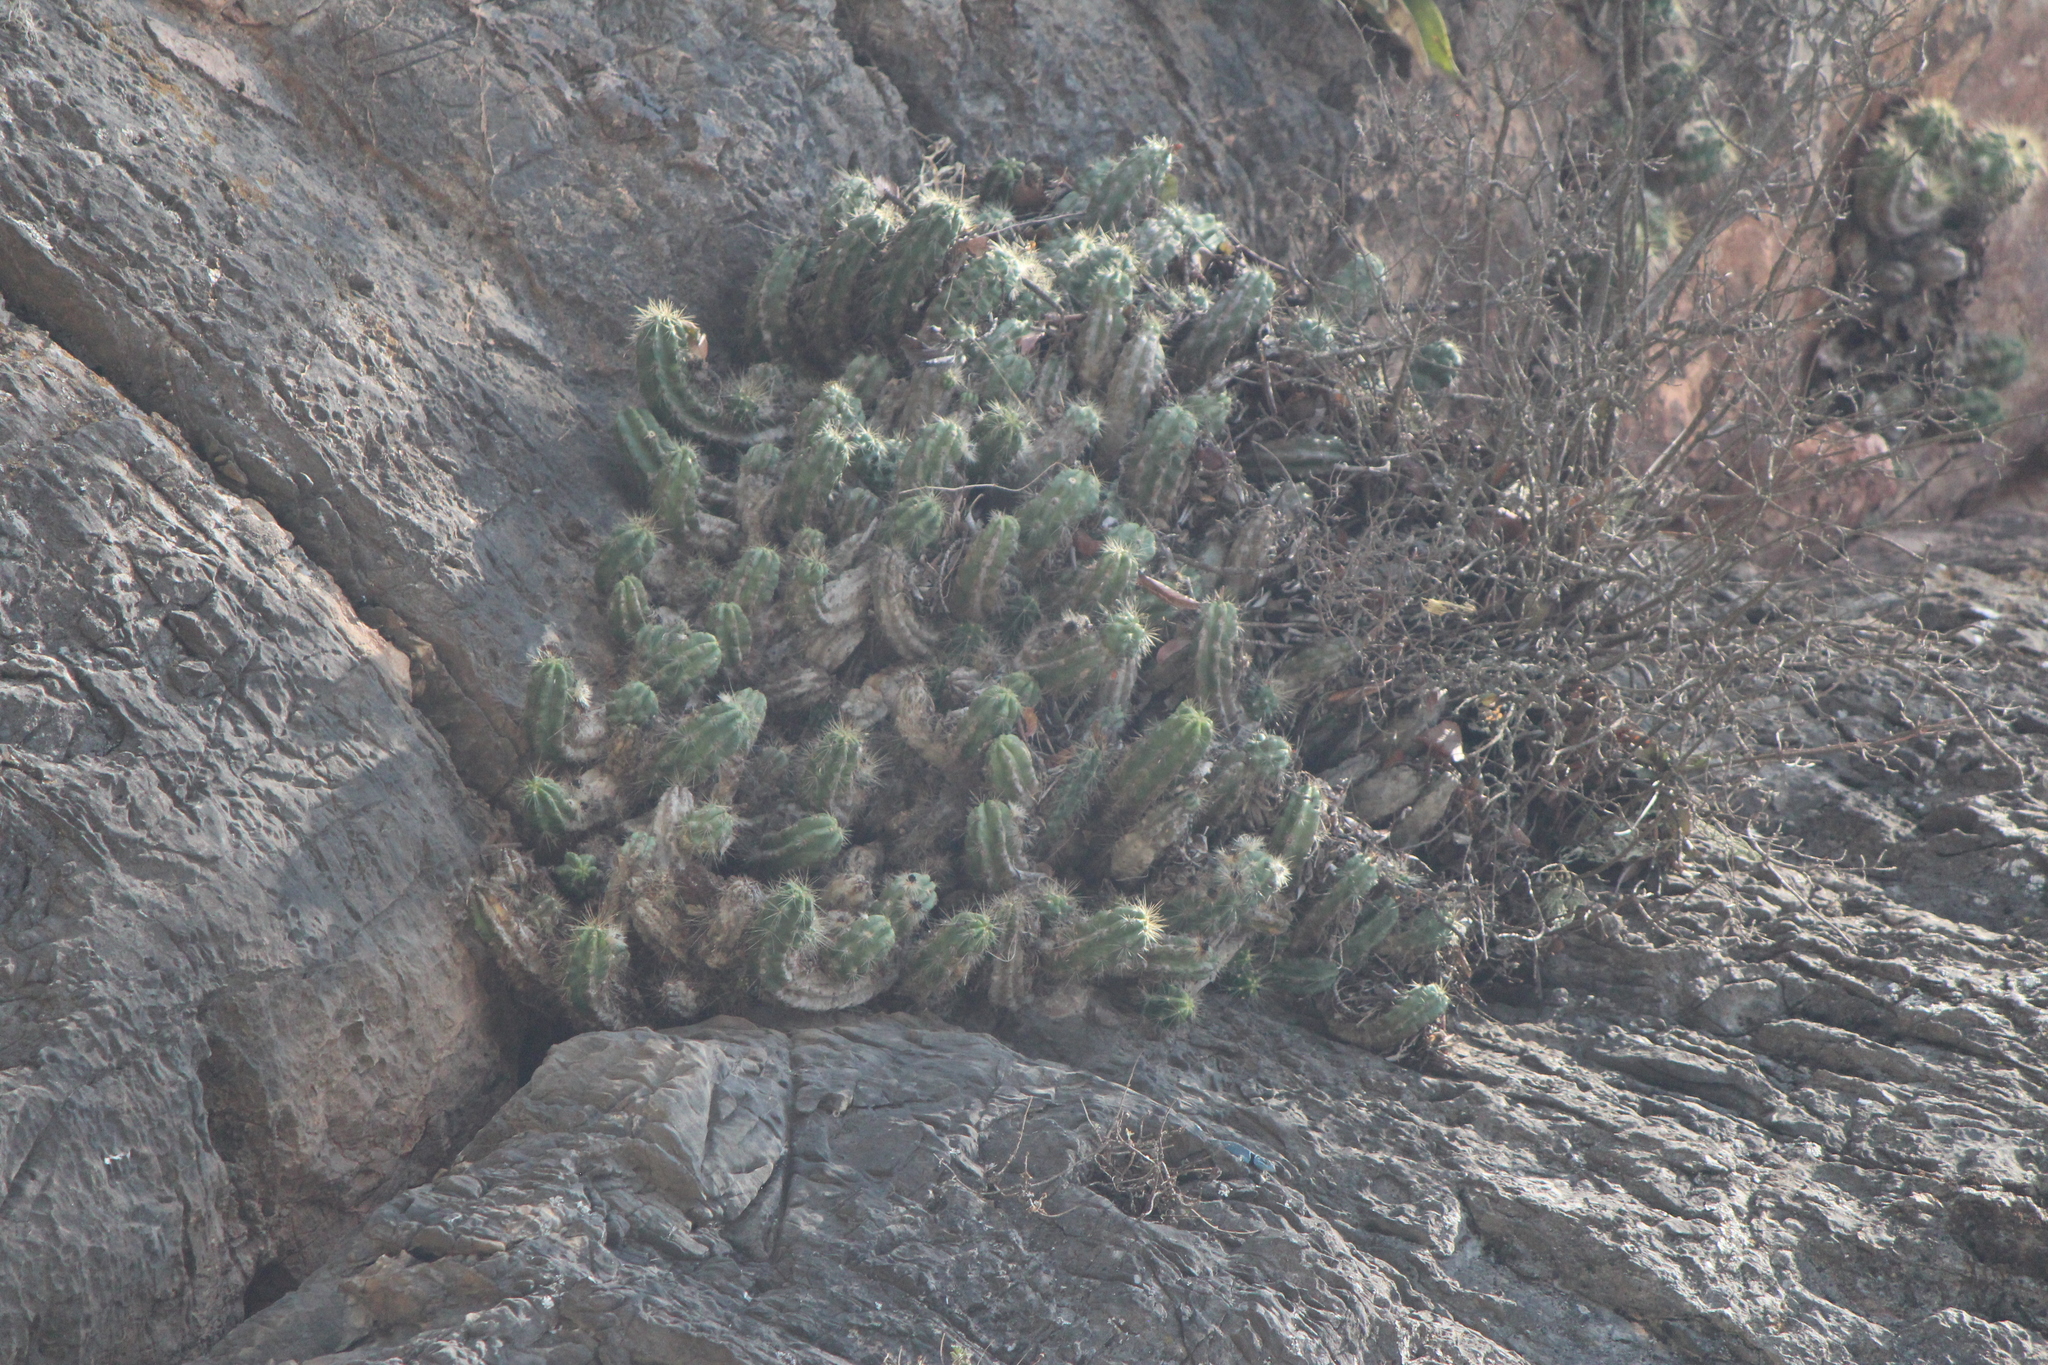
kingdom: Plantae
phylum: Tracheophyta
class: Magnoliopsida
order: Caryophyllales
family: Cactaceae
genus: Echinocereus
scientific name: Echinocereus cinerascens
